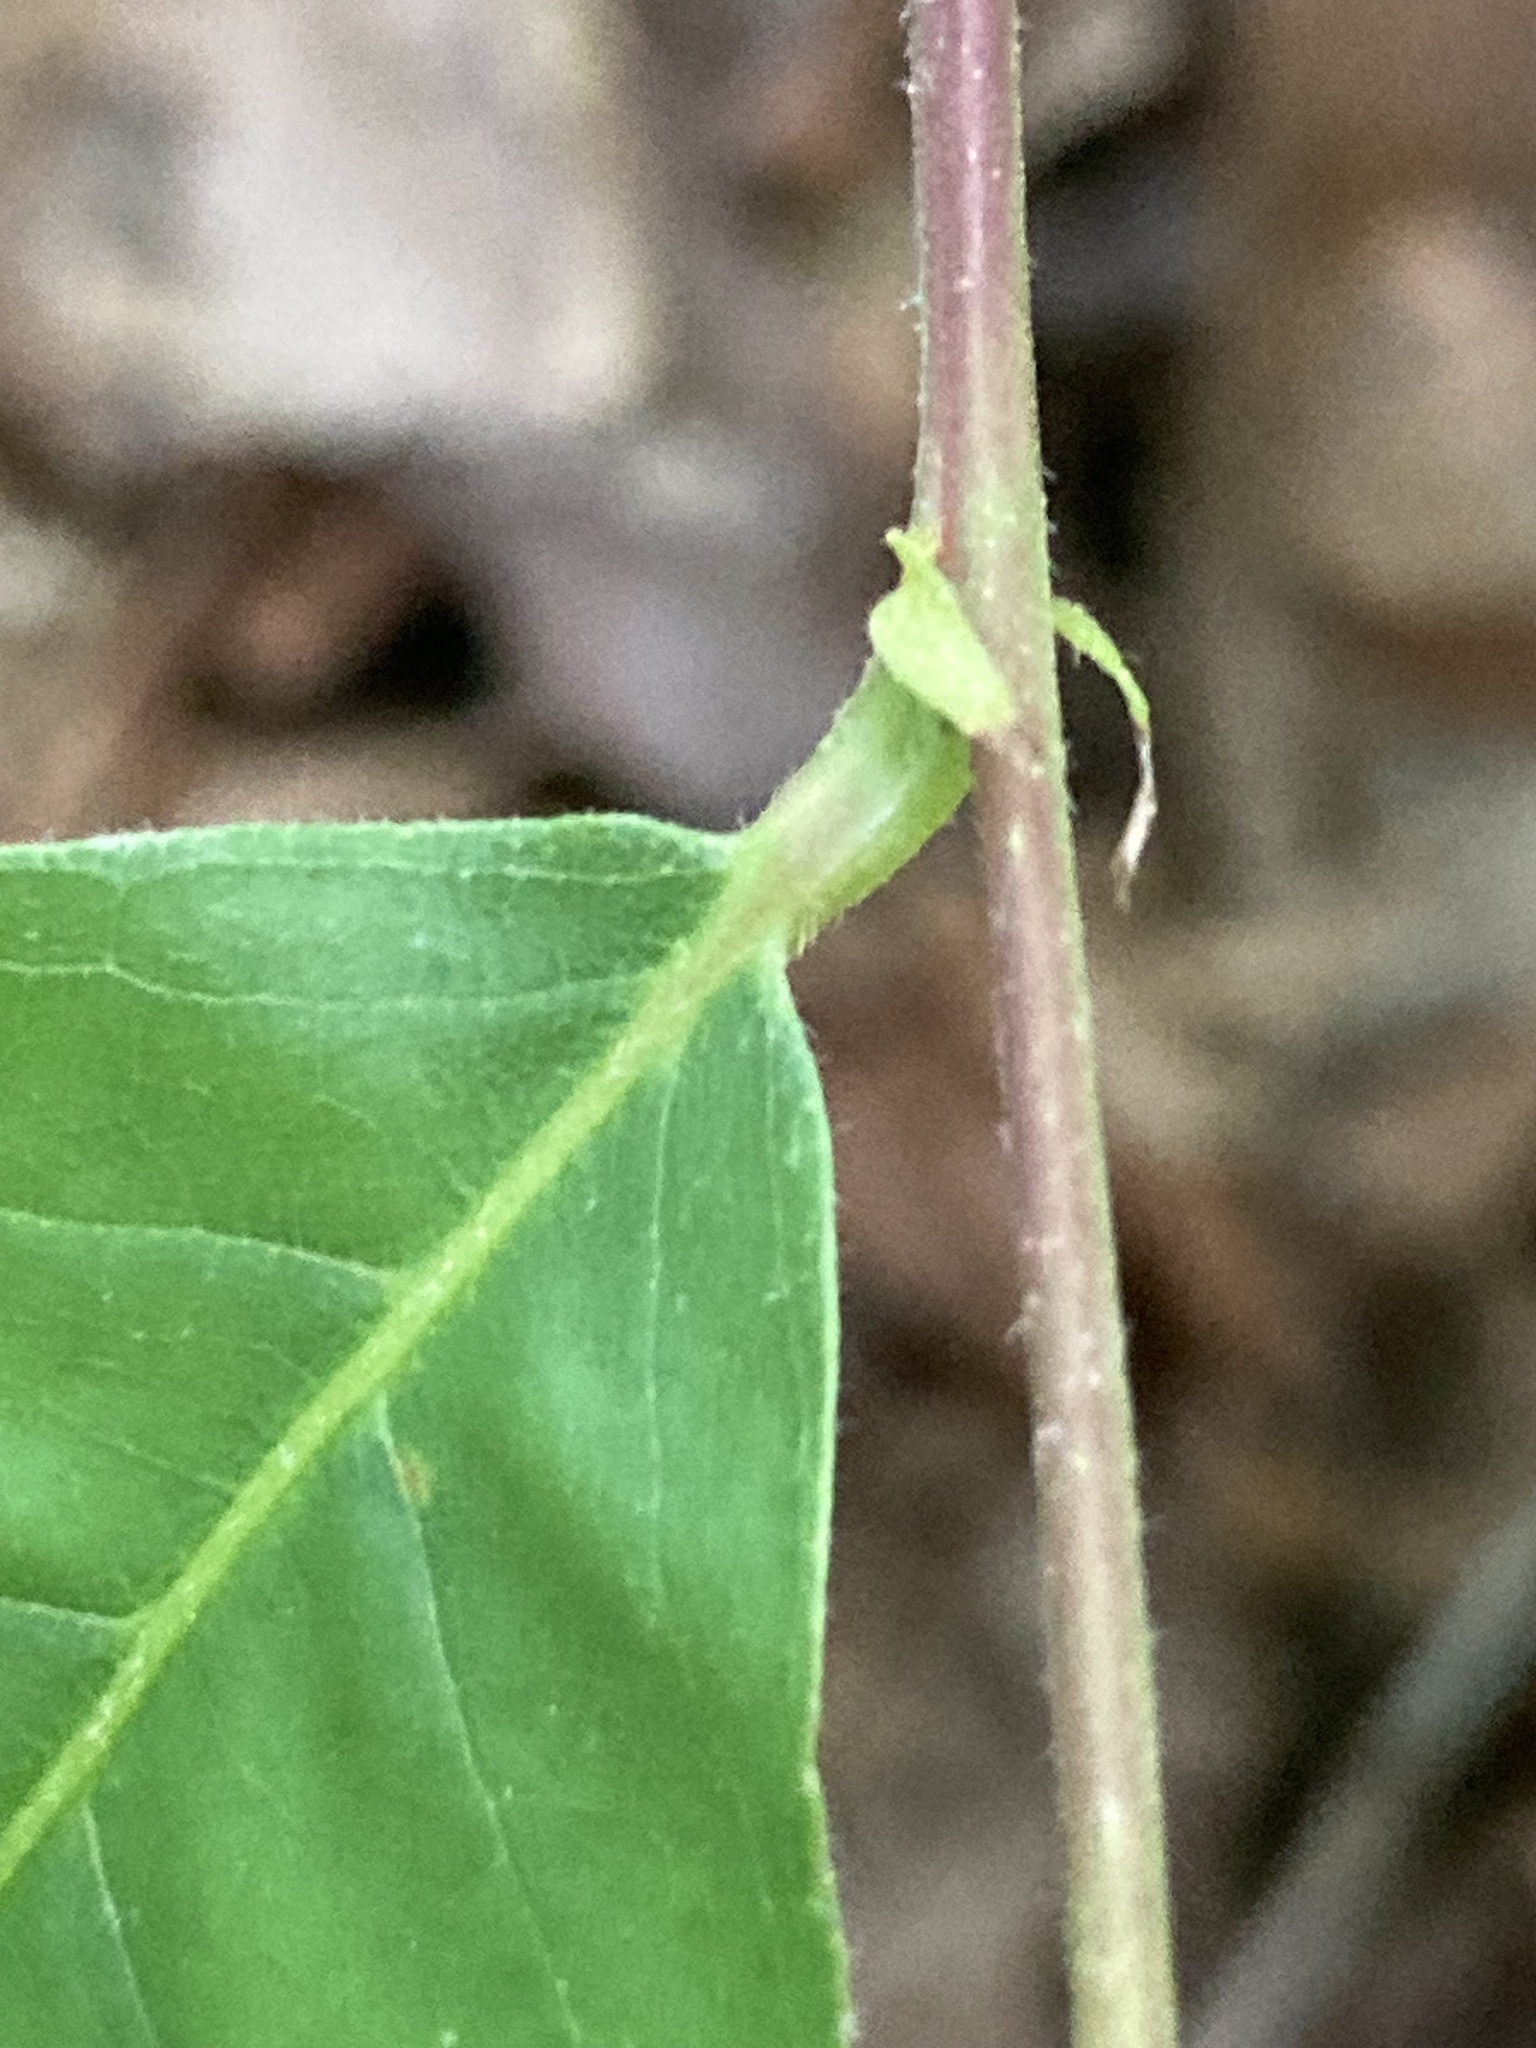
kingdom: Plantae
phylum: Tracheophyta
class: Magnoliopsida
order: Fagales
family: Fagaceae
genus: Castanea
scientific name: Castanea pumila
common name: Chinkapin
